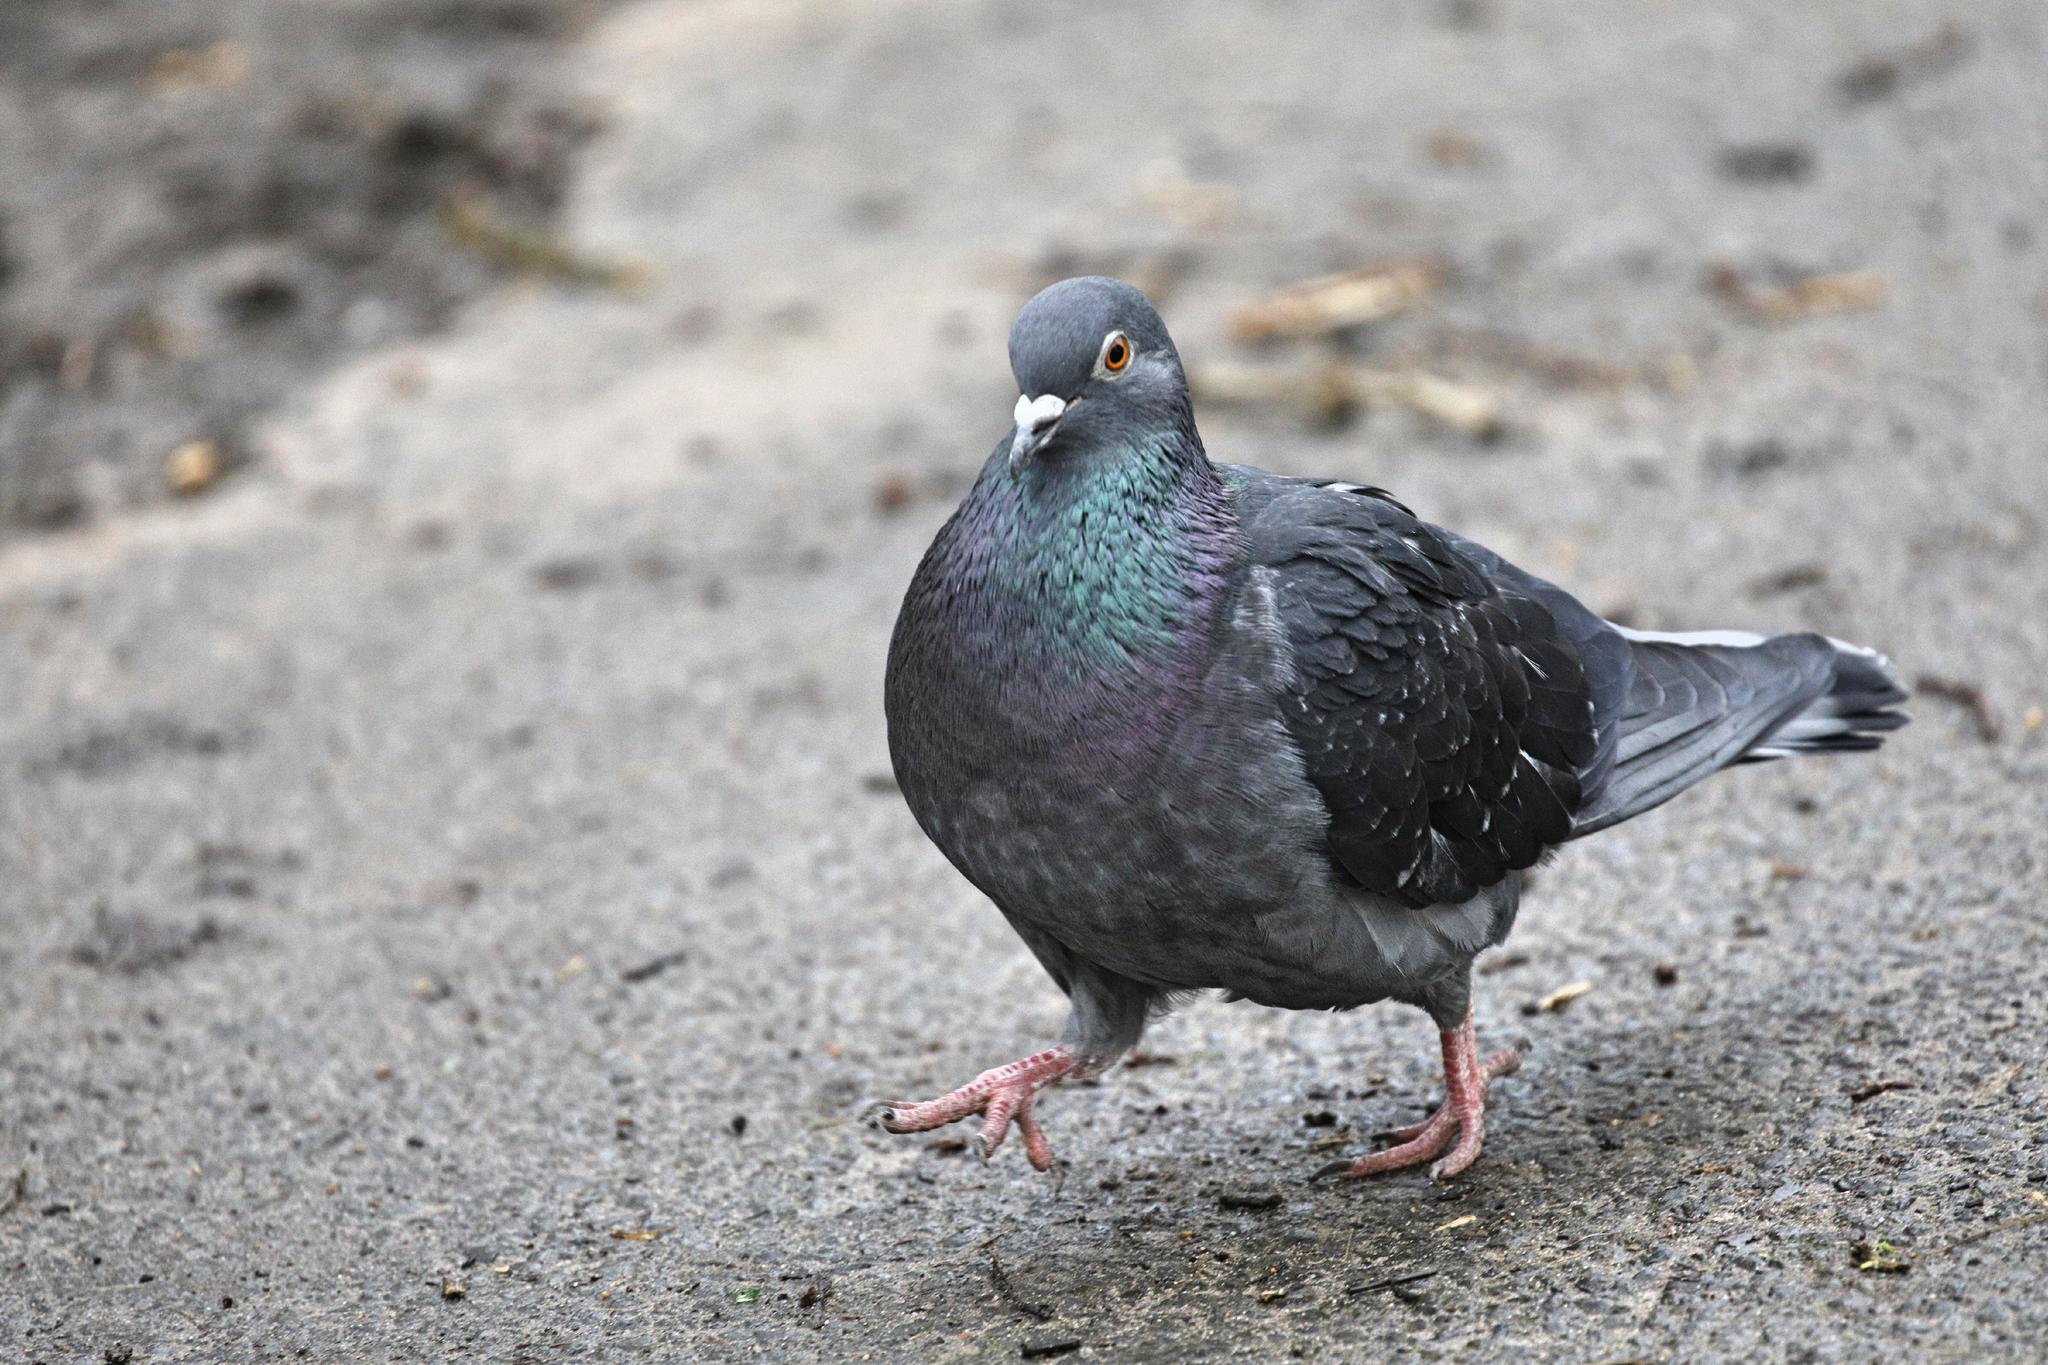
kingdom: Animalia
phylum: Chordata
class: Aves
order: Columbiformes
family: Columbidae
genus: Columba
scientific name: Columba livia
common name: Rock pigeon
